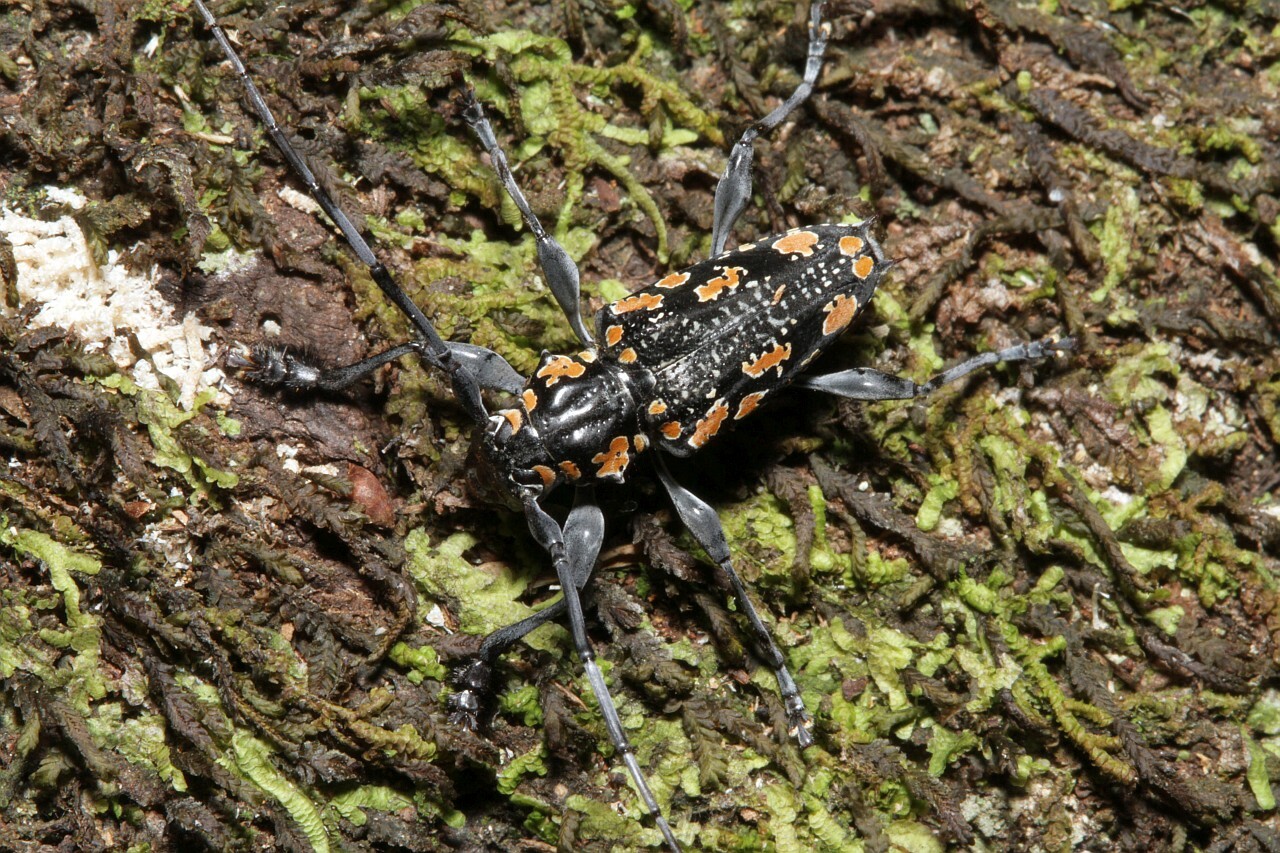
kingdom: Animalia
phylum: Arthropoda
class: Insecta
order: Coleoptera
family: Cerambycidae
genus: Aegomorphus
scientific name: Aegomorphus
